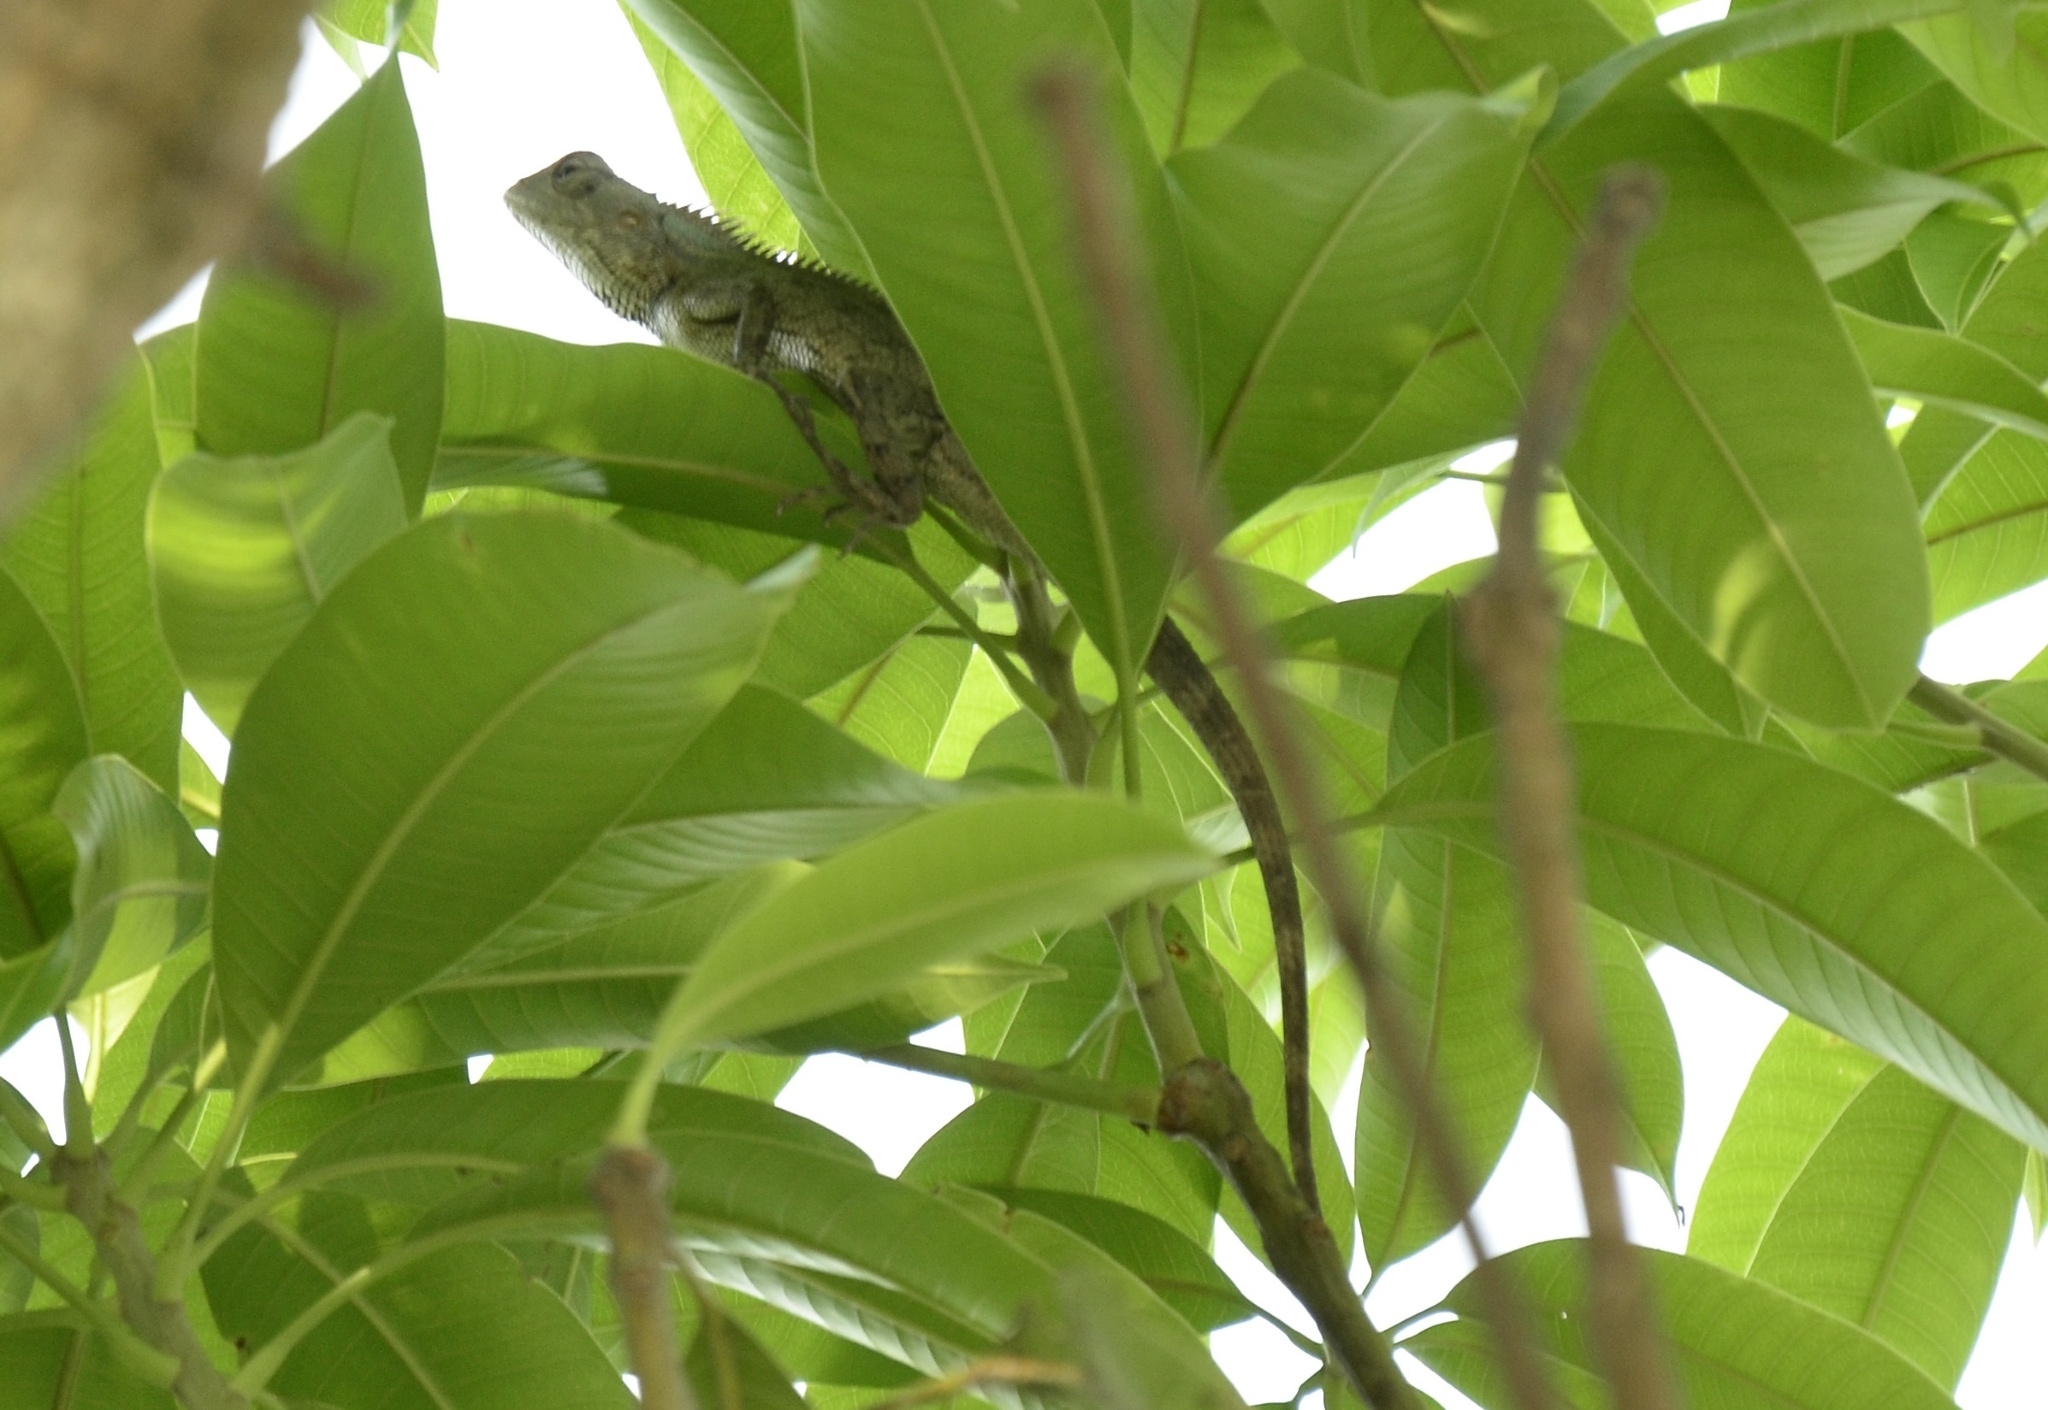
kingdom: Animalia
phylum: Chordata
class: Squamata
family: Agamidae
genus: Calotes
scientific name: Calotes versicolor
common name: Oriental garden lizard
